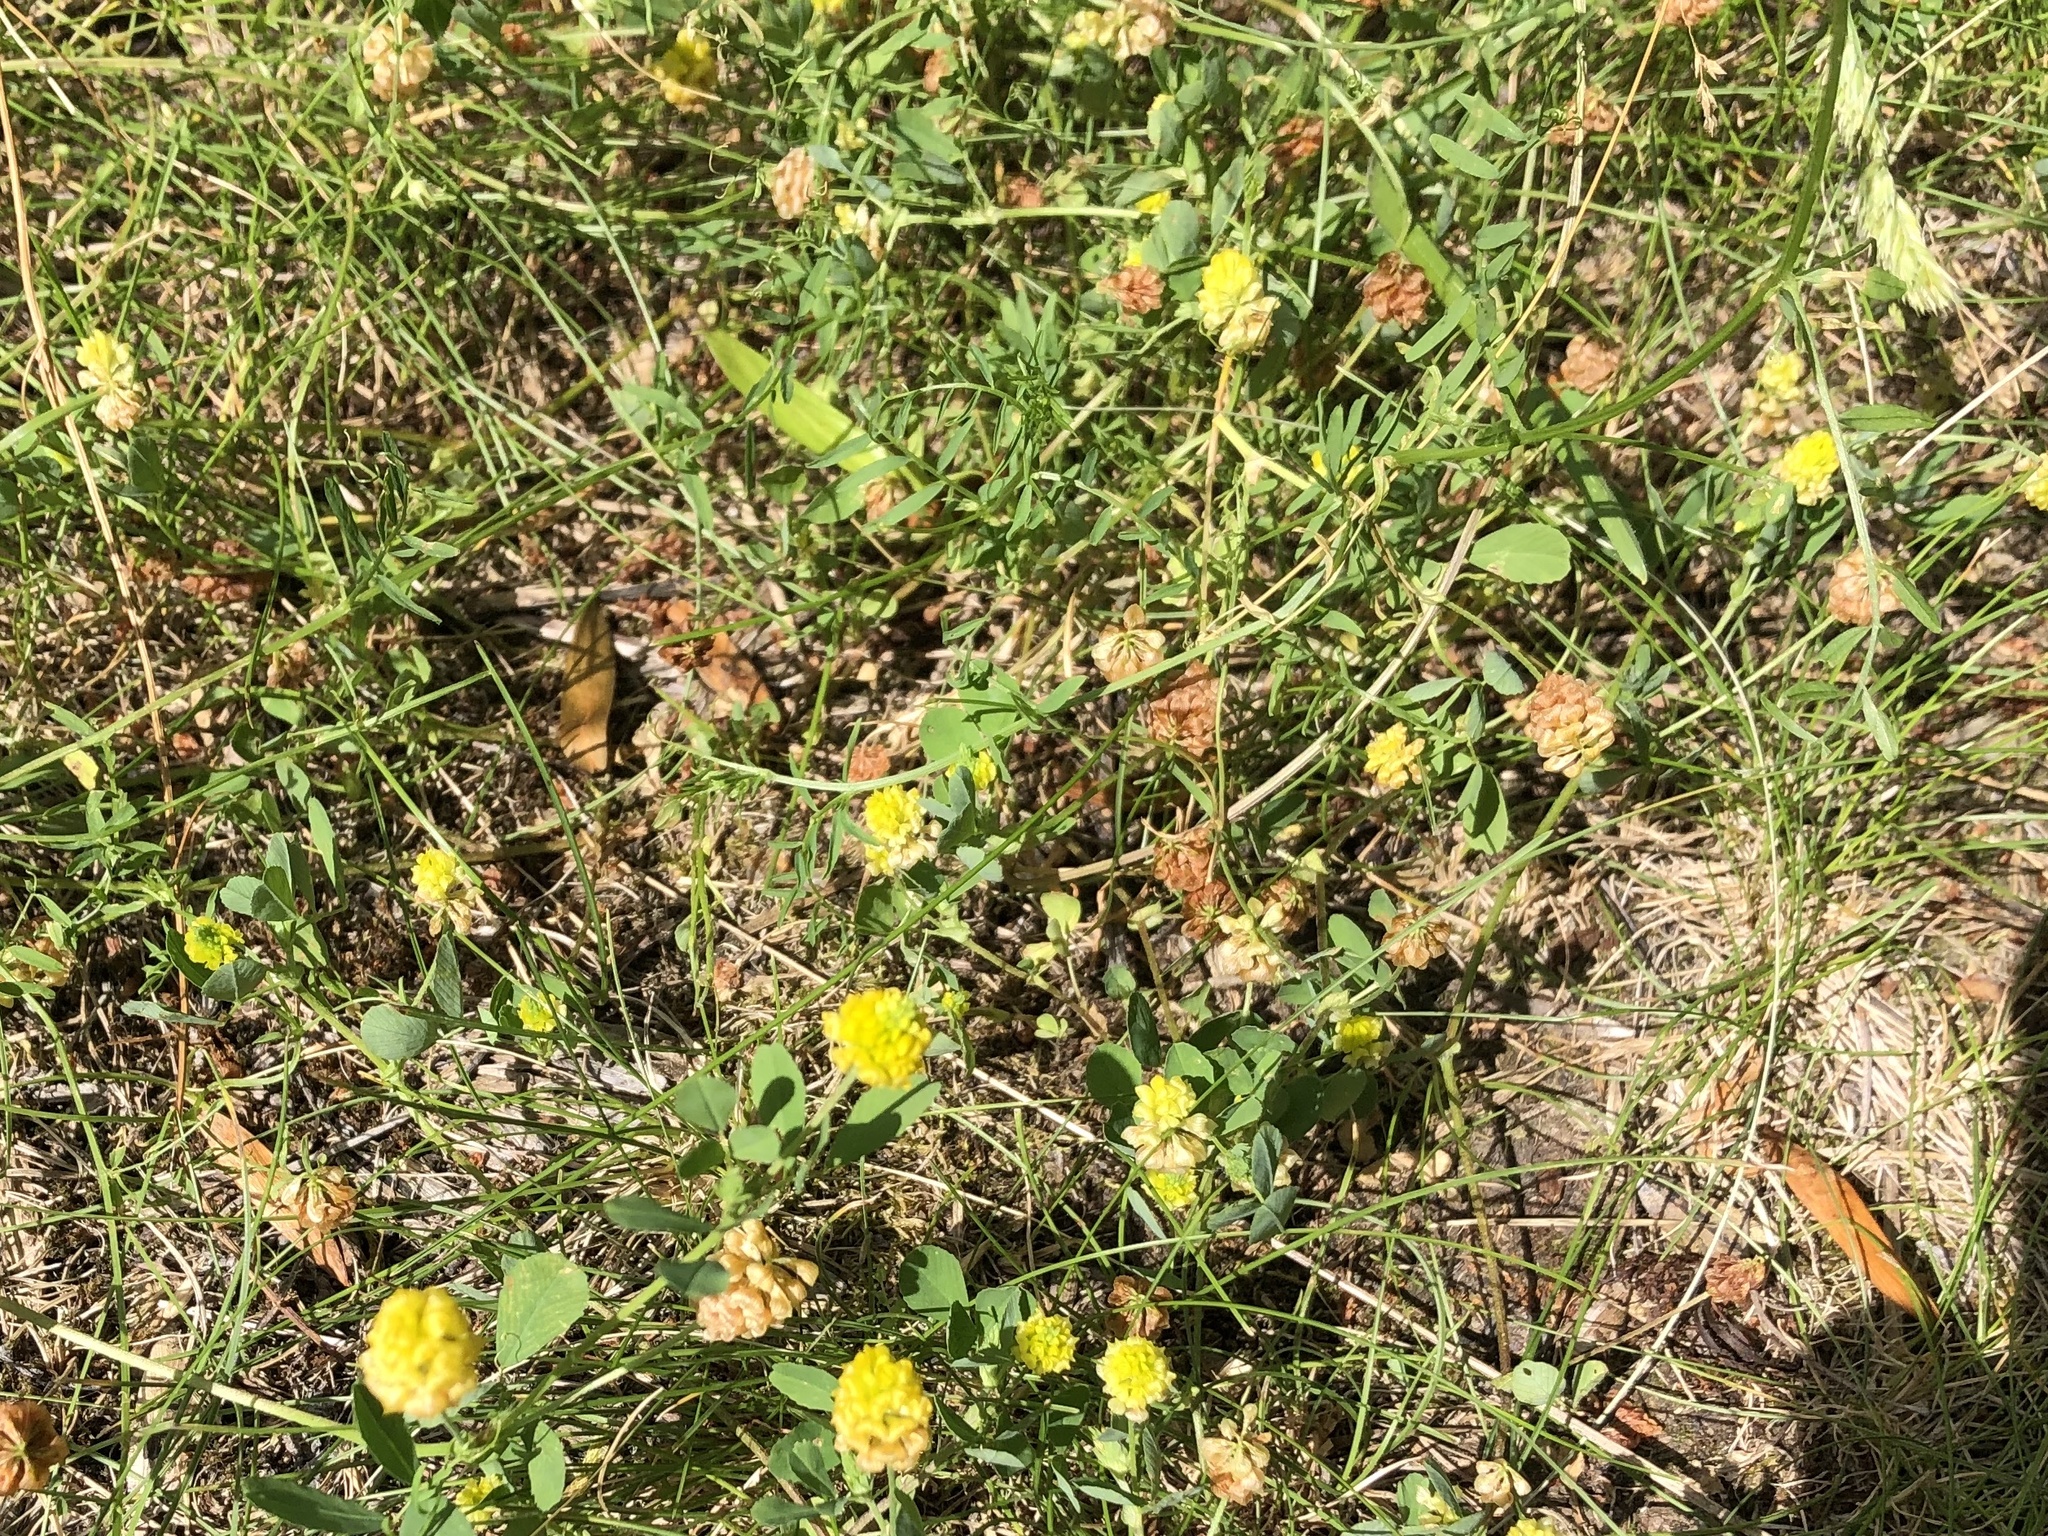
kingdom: Plantae
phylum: Tracheophyta
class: Magnoliopsida
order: Fabales
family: Fabaceae
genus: Trifolium
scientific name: Trifolium campestre
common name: Field clover
